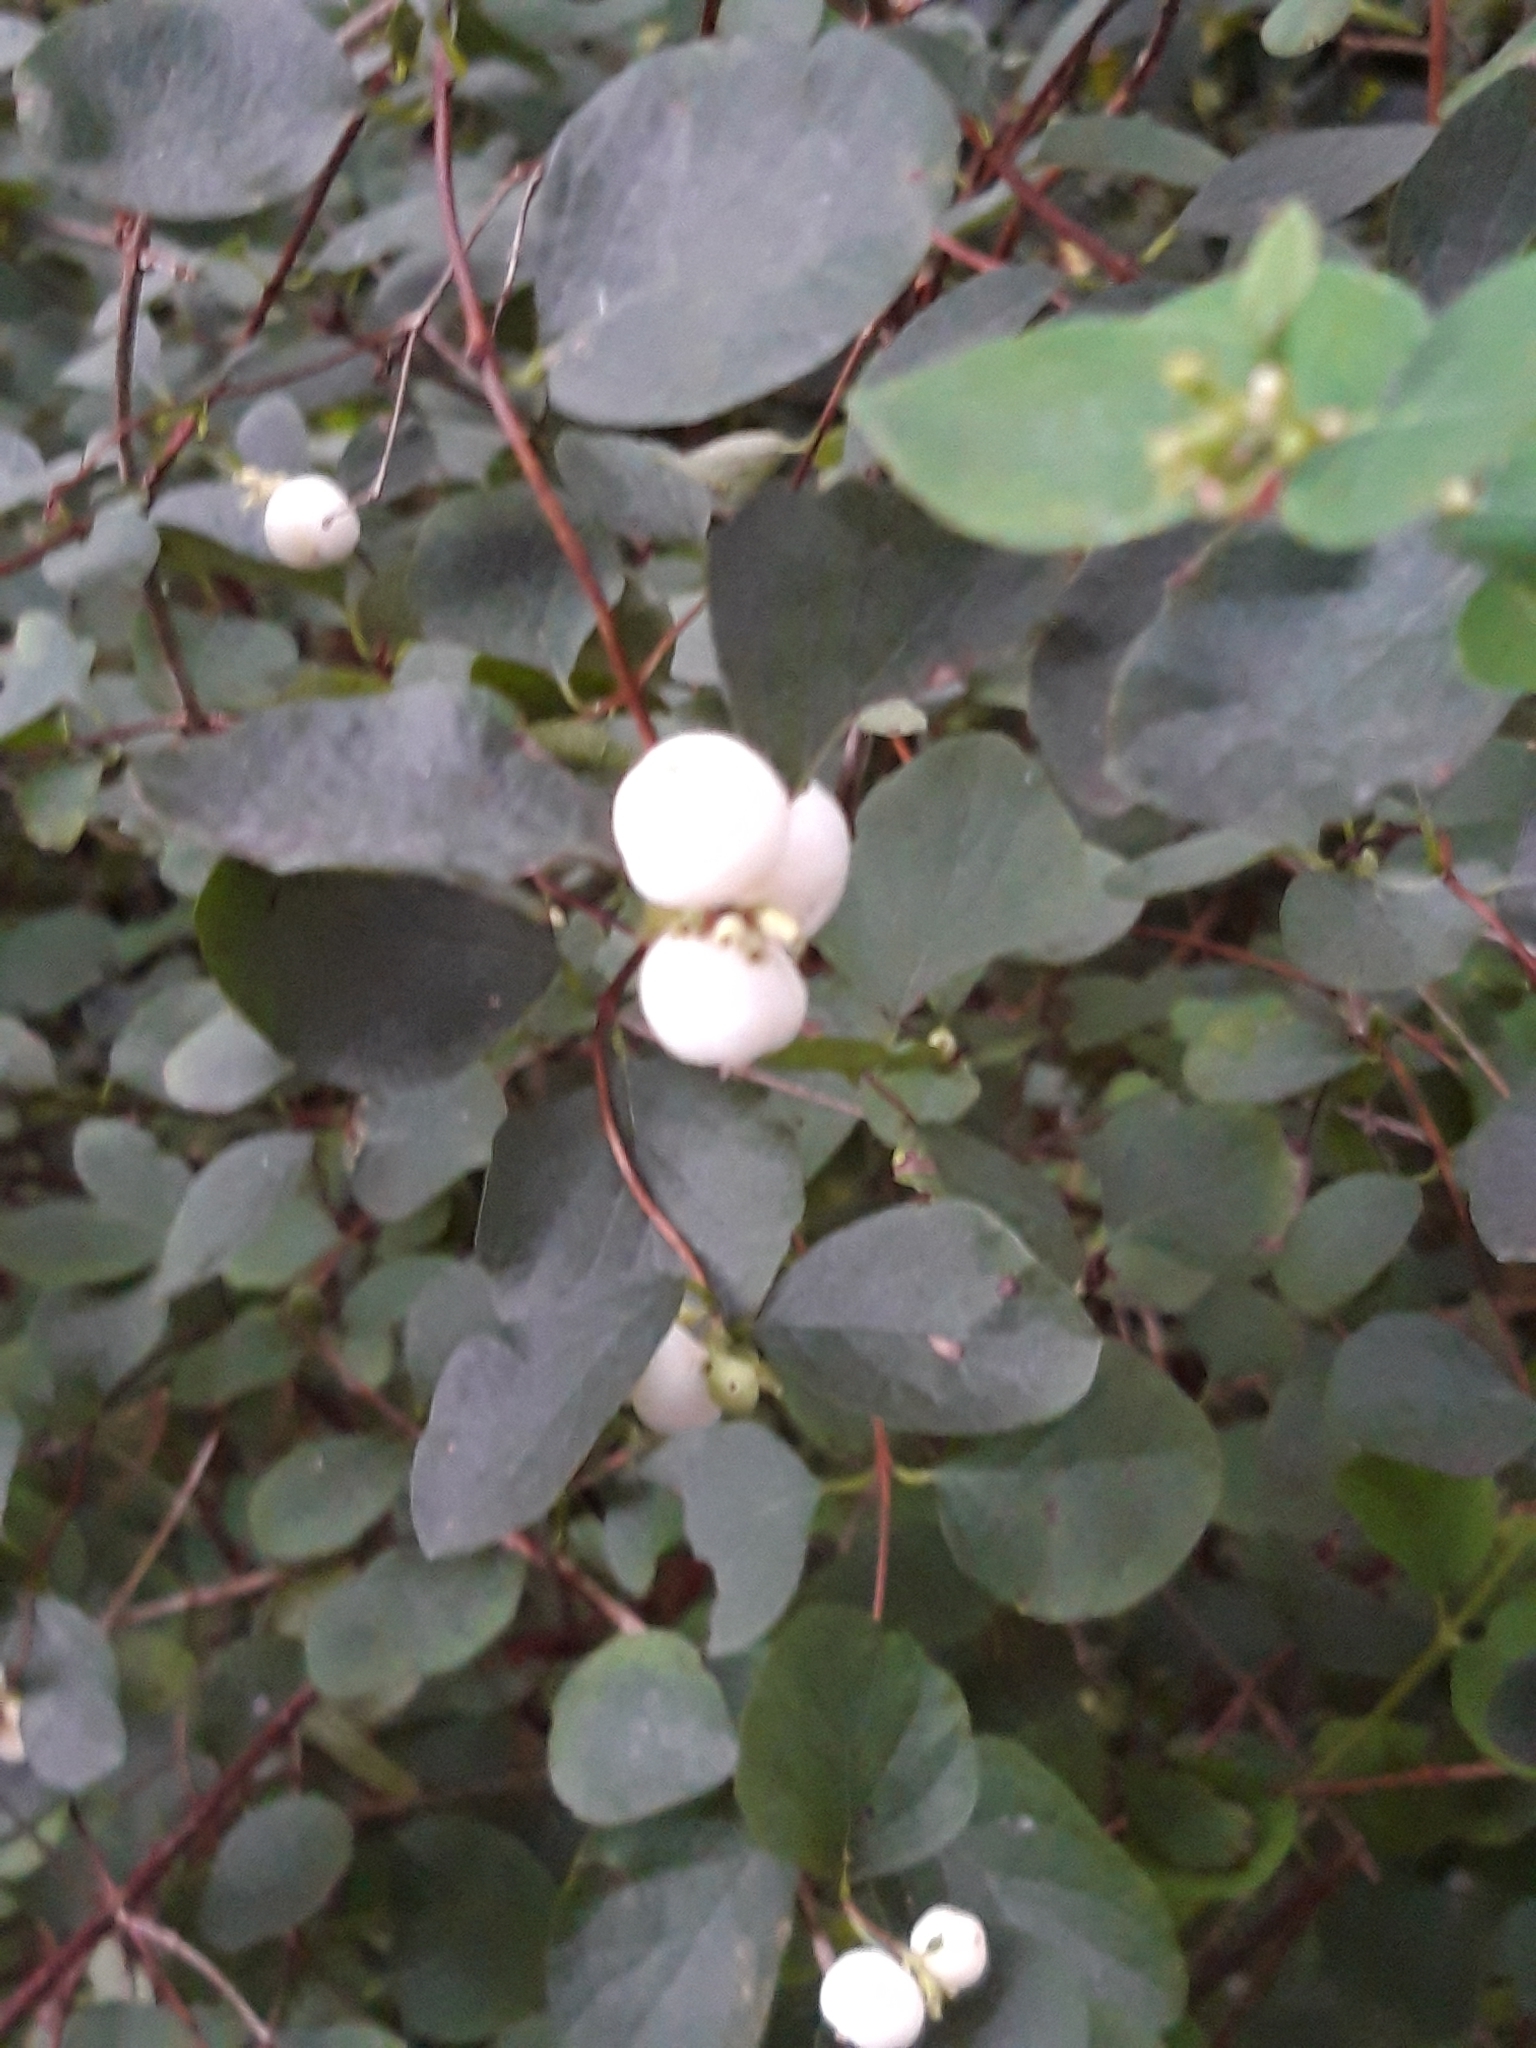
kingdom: Plantae
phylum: Tracheophyta
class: Magnoliopsida
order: Dipsacales
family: Caprifoliaceae
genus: Symphoricarpos
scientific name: Symphoricarpos albus
